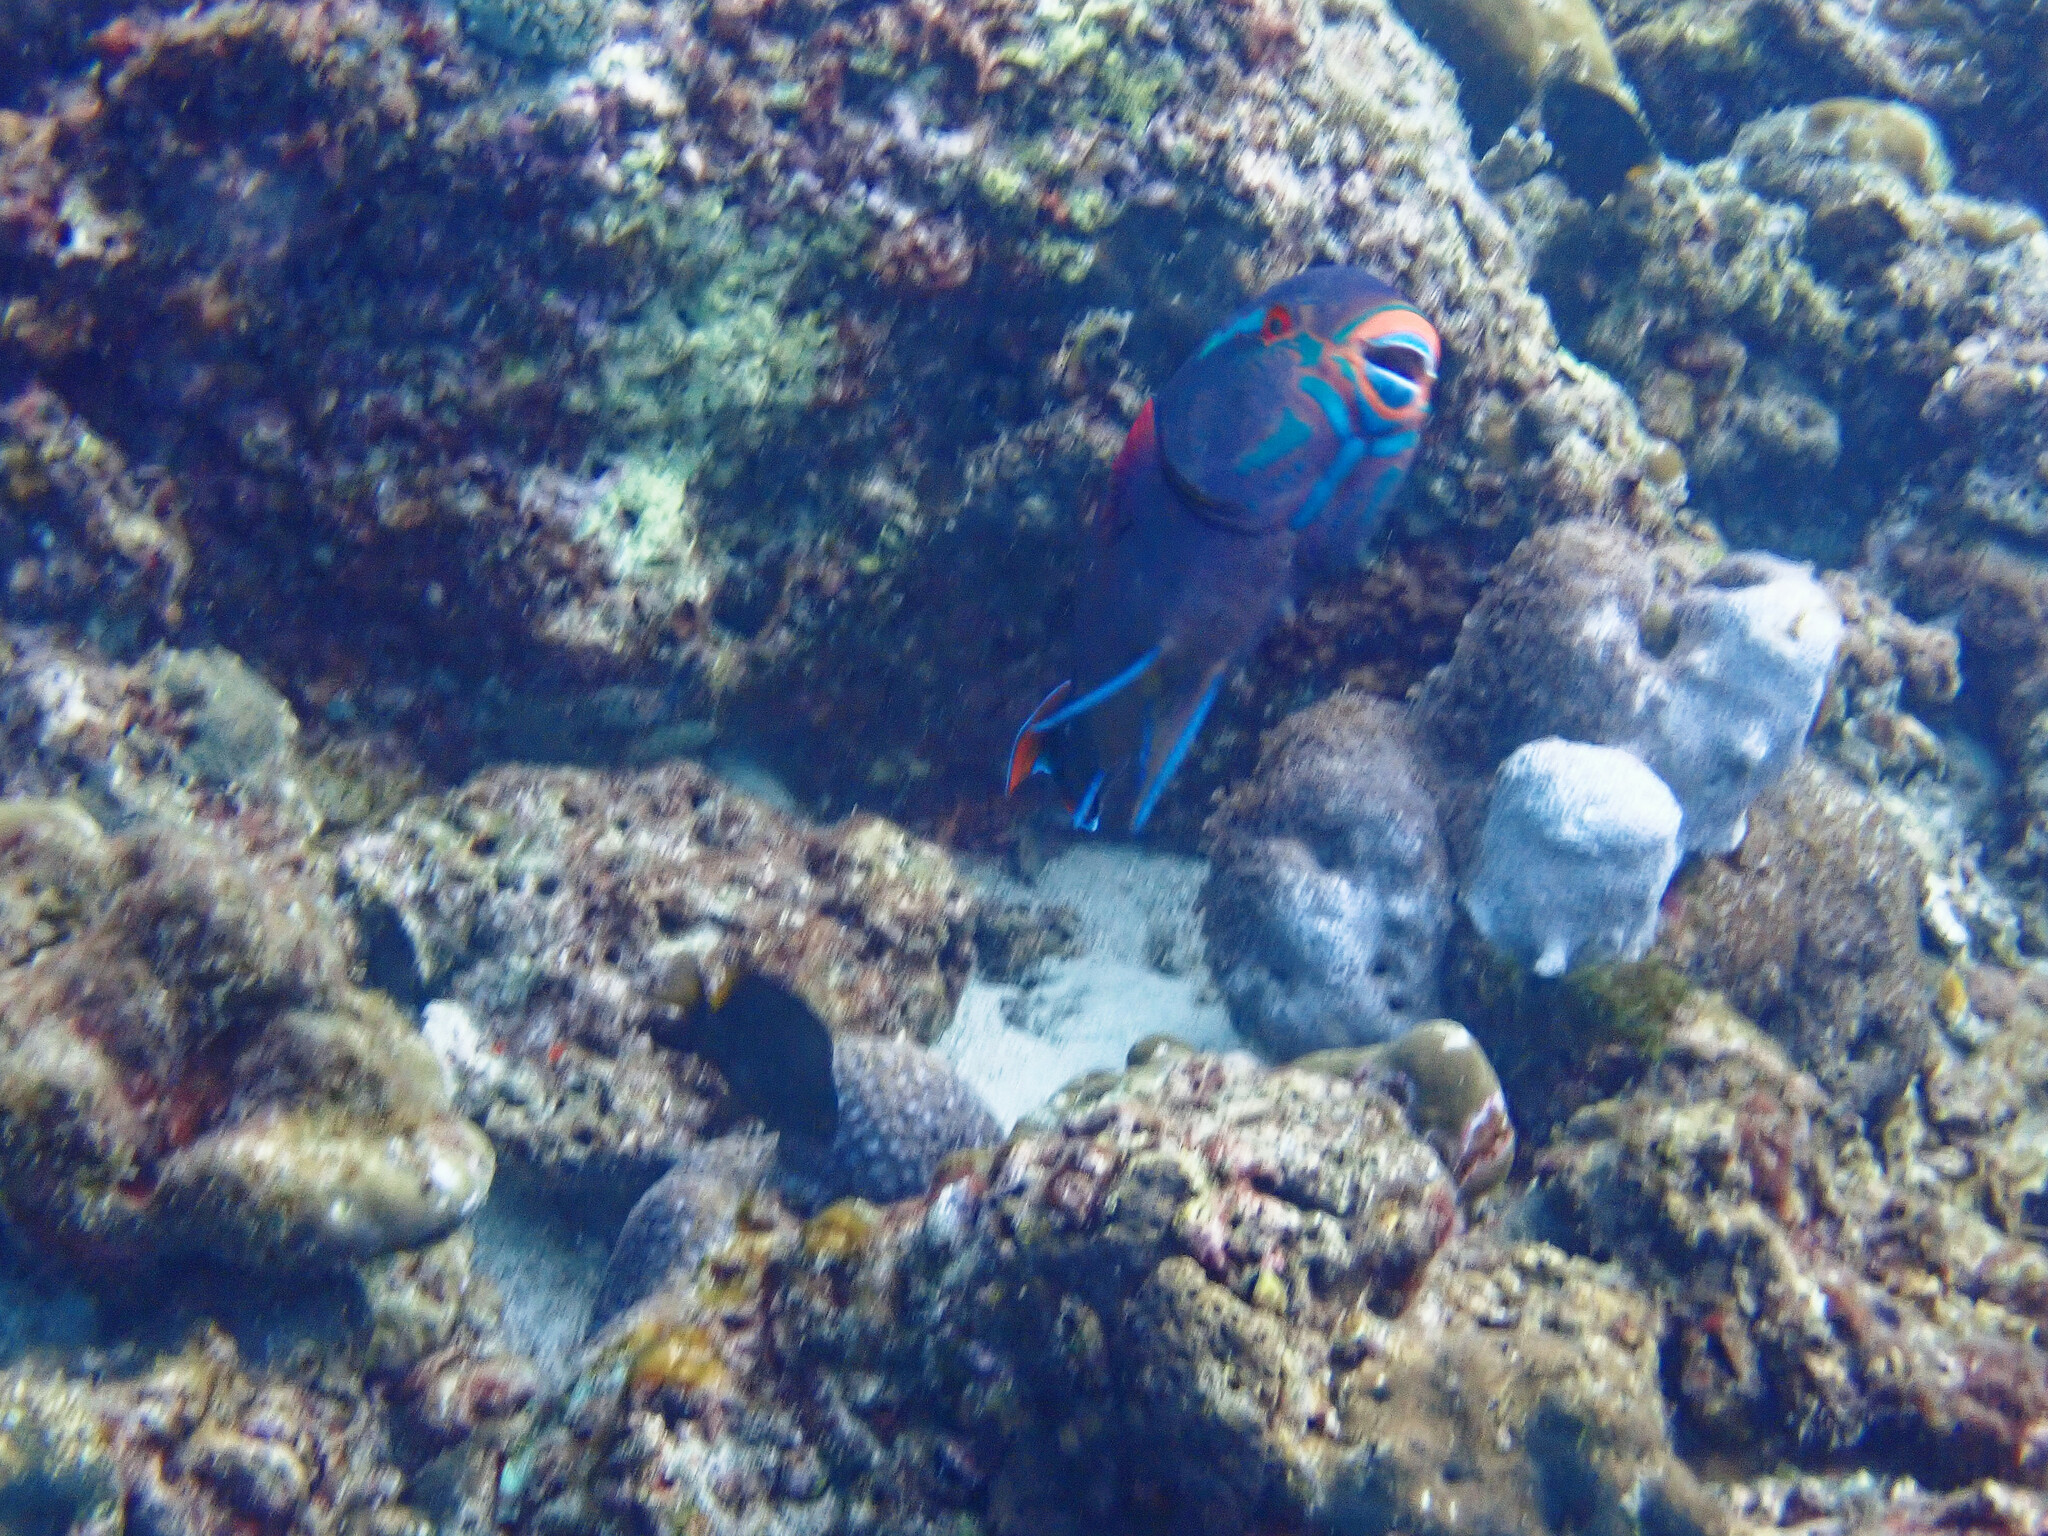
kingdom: Animalia
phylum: Chordata
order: Perciformes
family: Scaridae
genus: Scarus
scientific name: Scarus niger
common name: Dusky parrotfish
